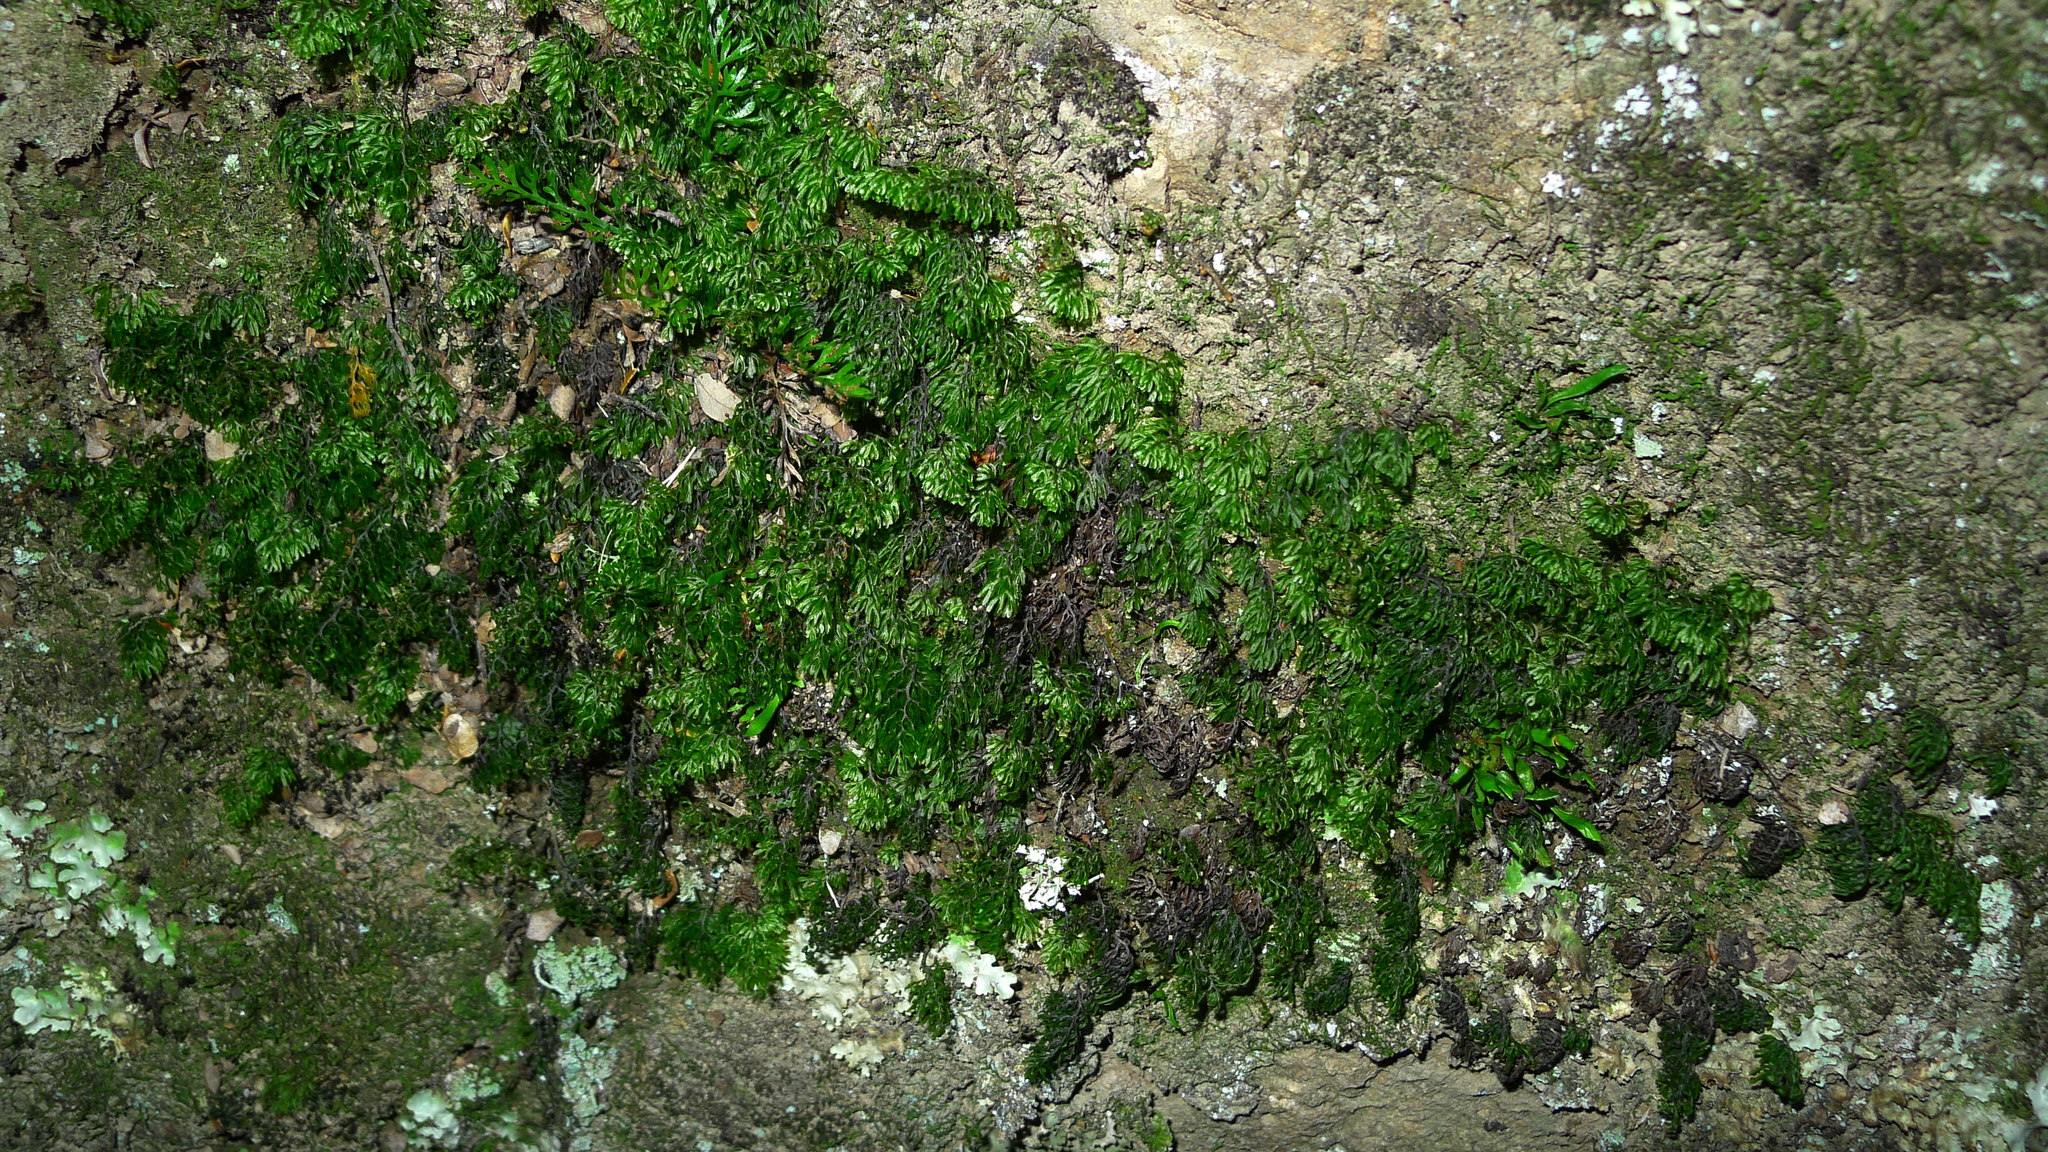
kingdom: Plantae
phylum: Tracheophyta
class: Polypodiopsida
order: Hymenophyllales
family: Hymenophyllaceae
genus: Hymenophyllum
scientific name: Hymenophyllum multifidum
